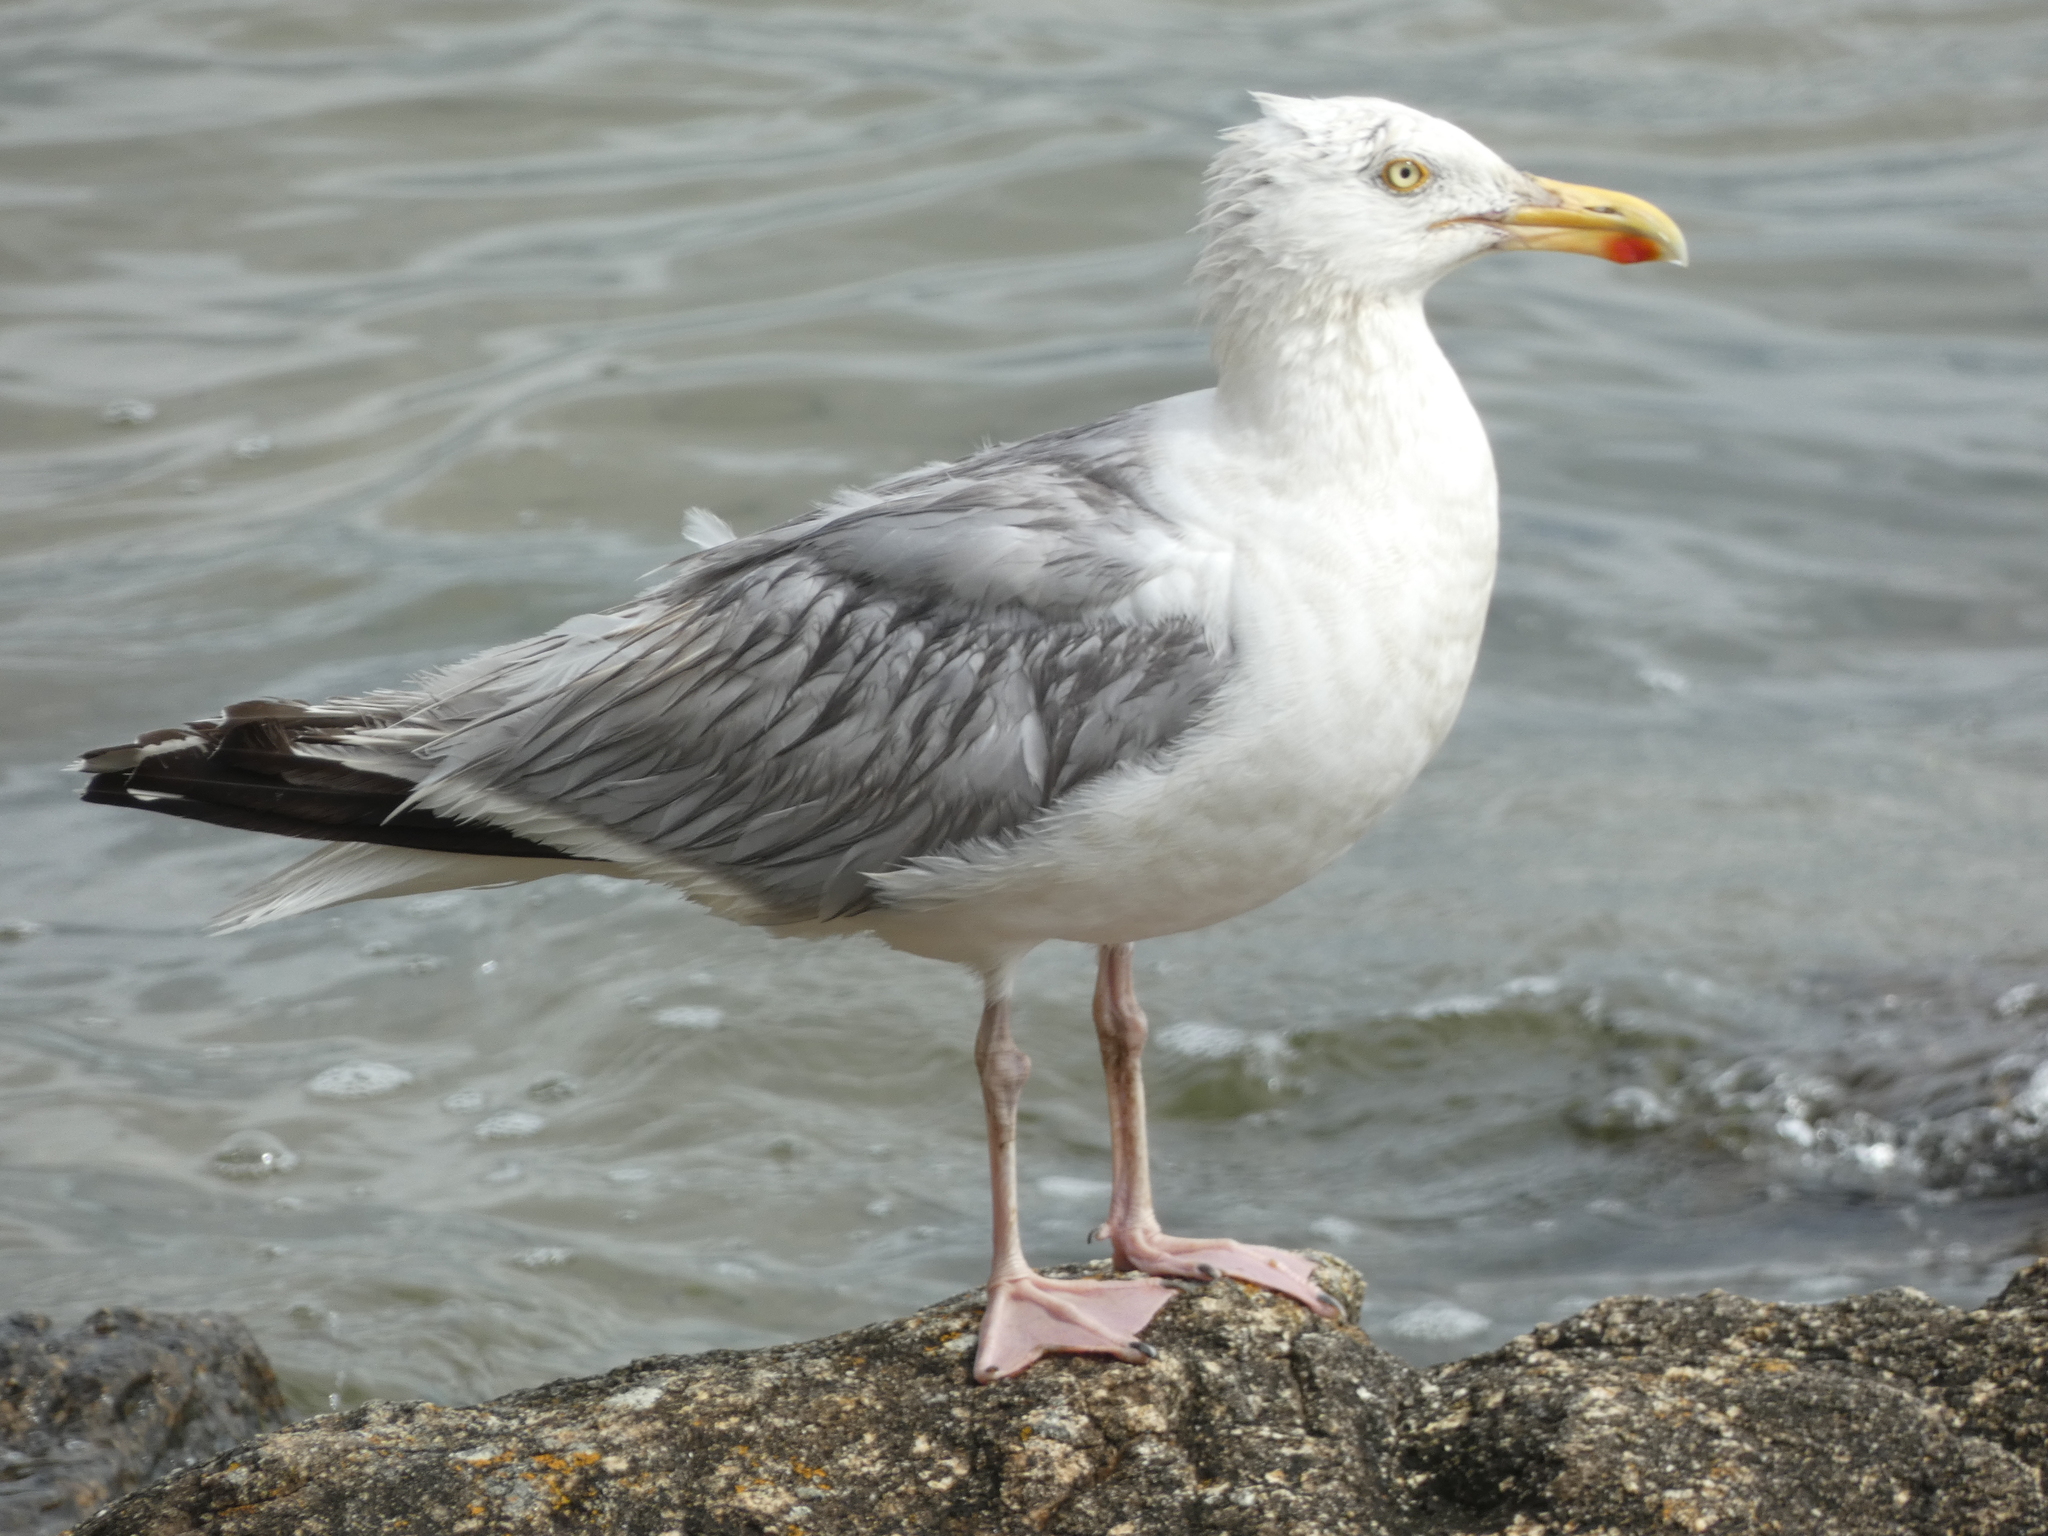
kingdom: Animalia
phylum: Chordata
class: Aves
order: Charadriiformes
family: Laridae
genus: Larus
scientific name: Larus argentatus
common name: Herring gull
